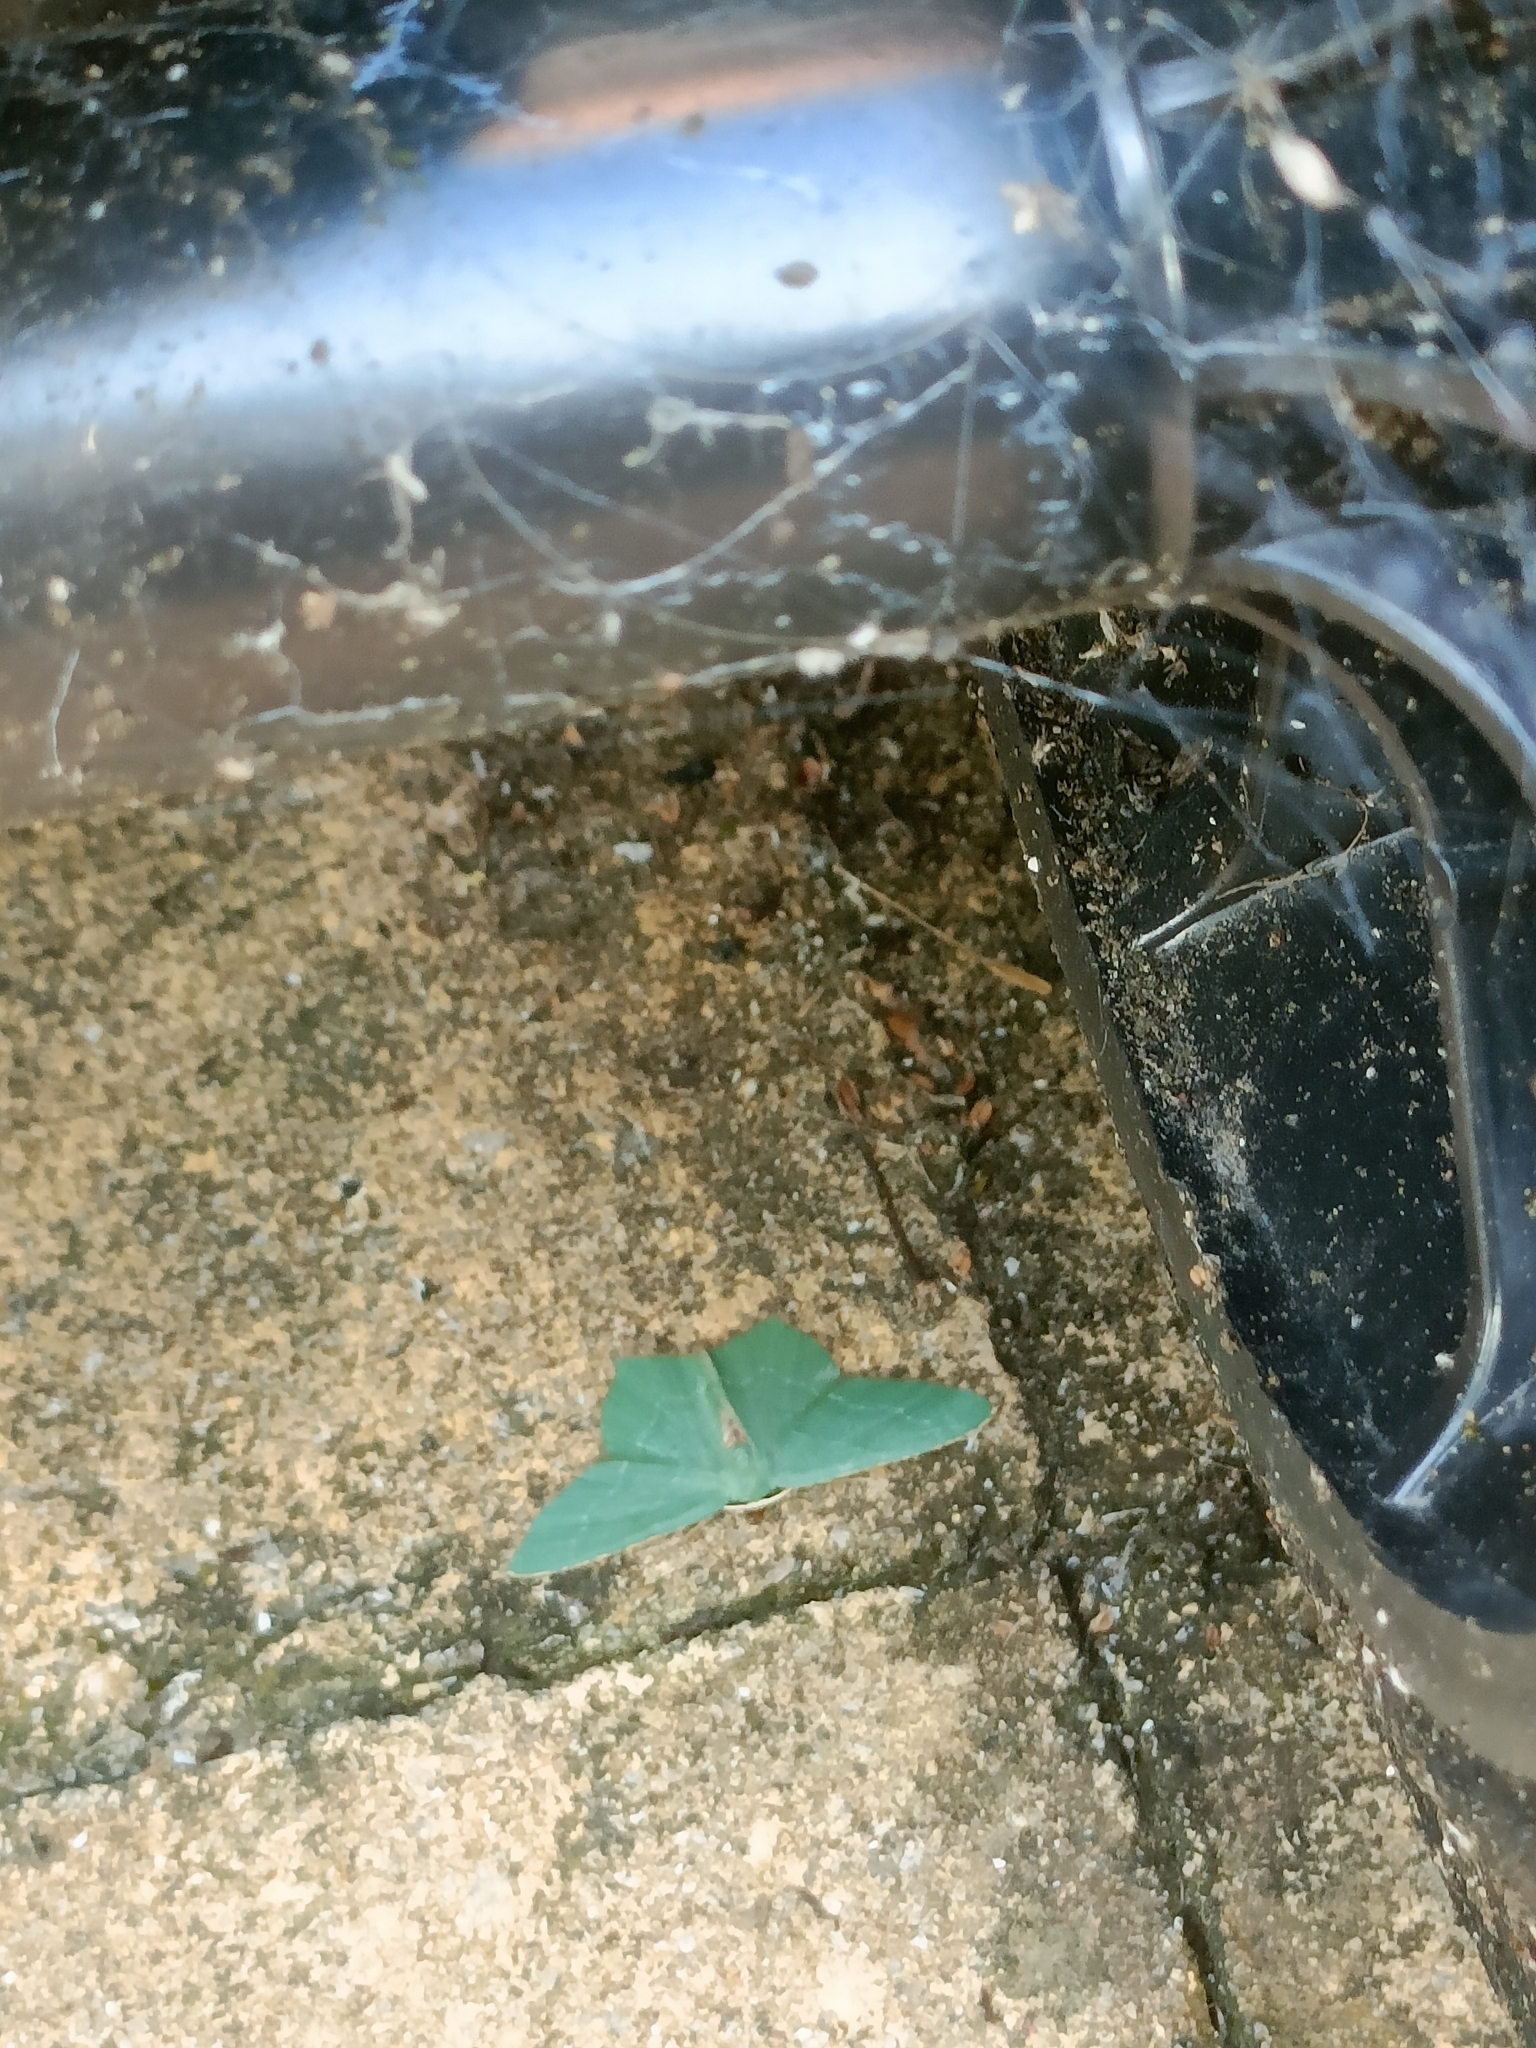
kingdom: Animalia
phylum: Arthropoda
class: Insecta
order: Lepidoptera
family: Geometridae
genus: Hemithea
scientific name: Hemithea aestivaria
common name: Common emerald
